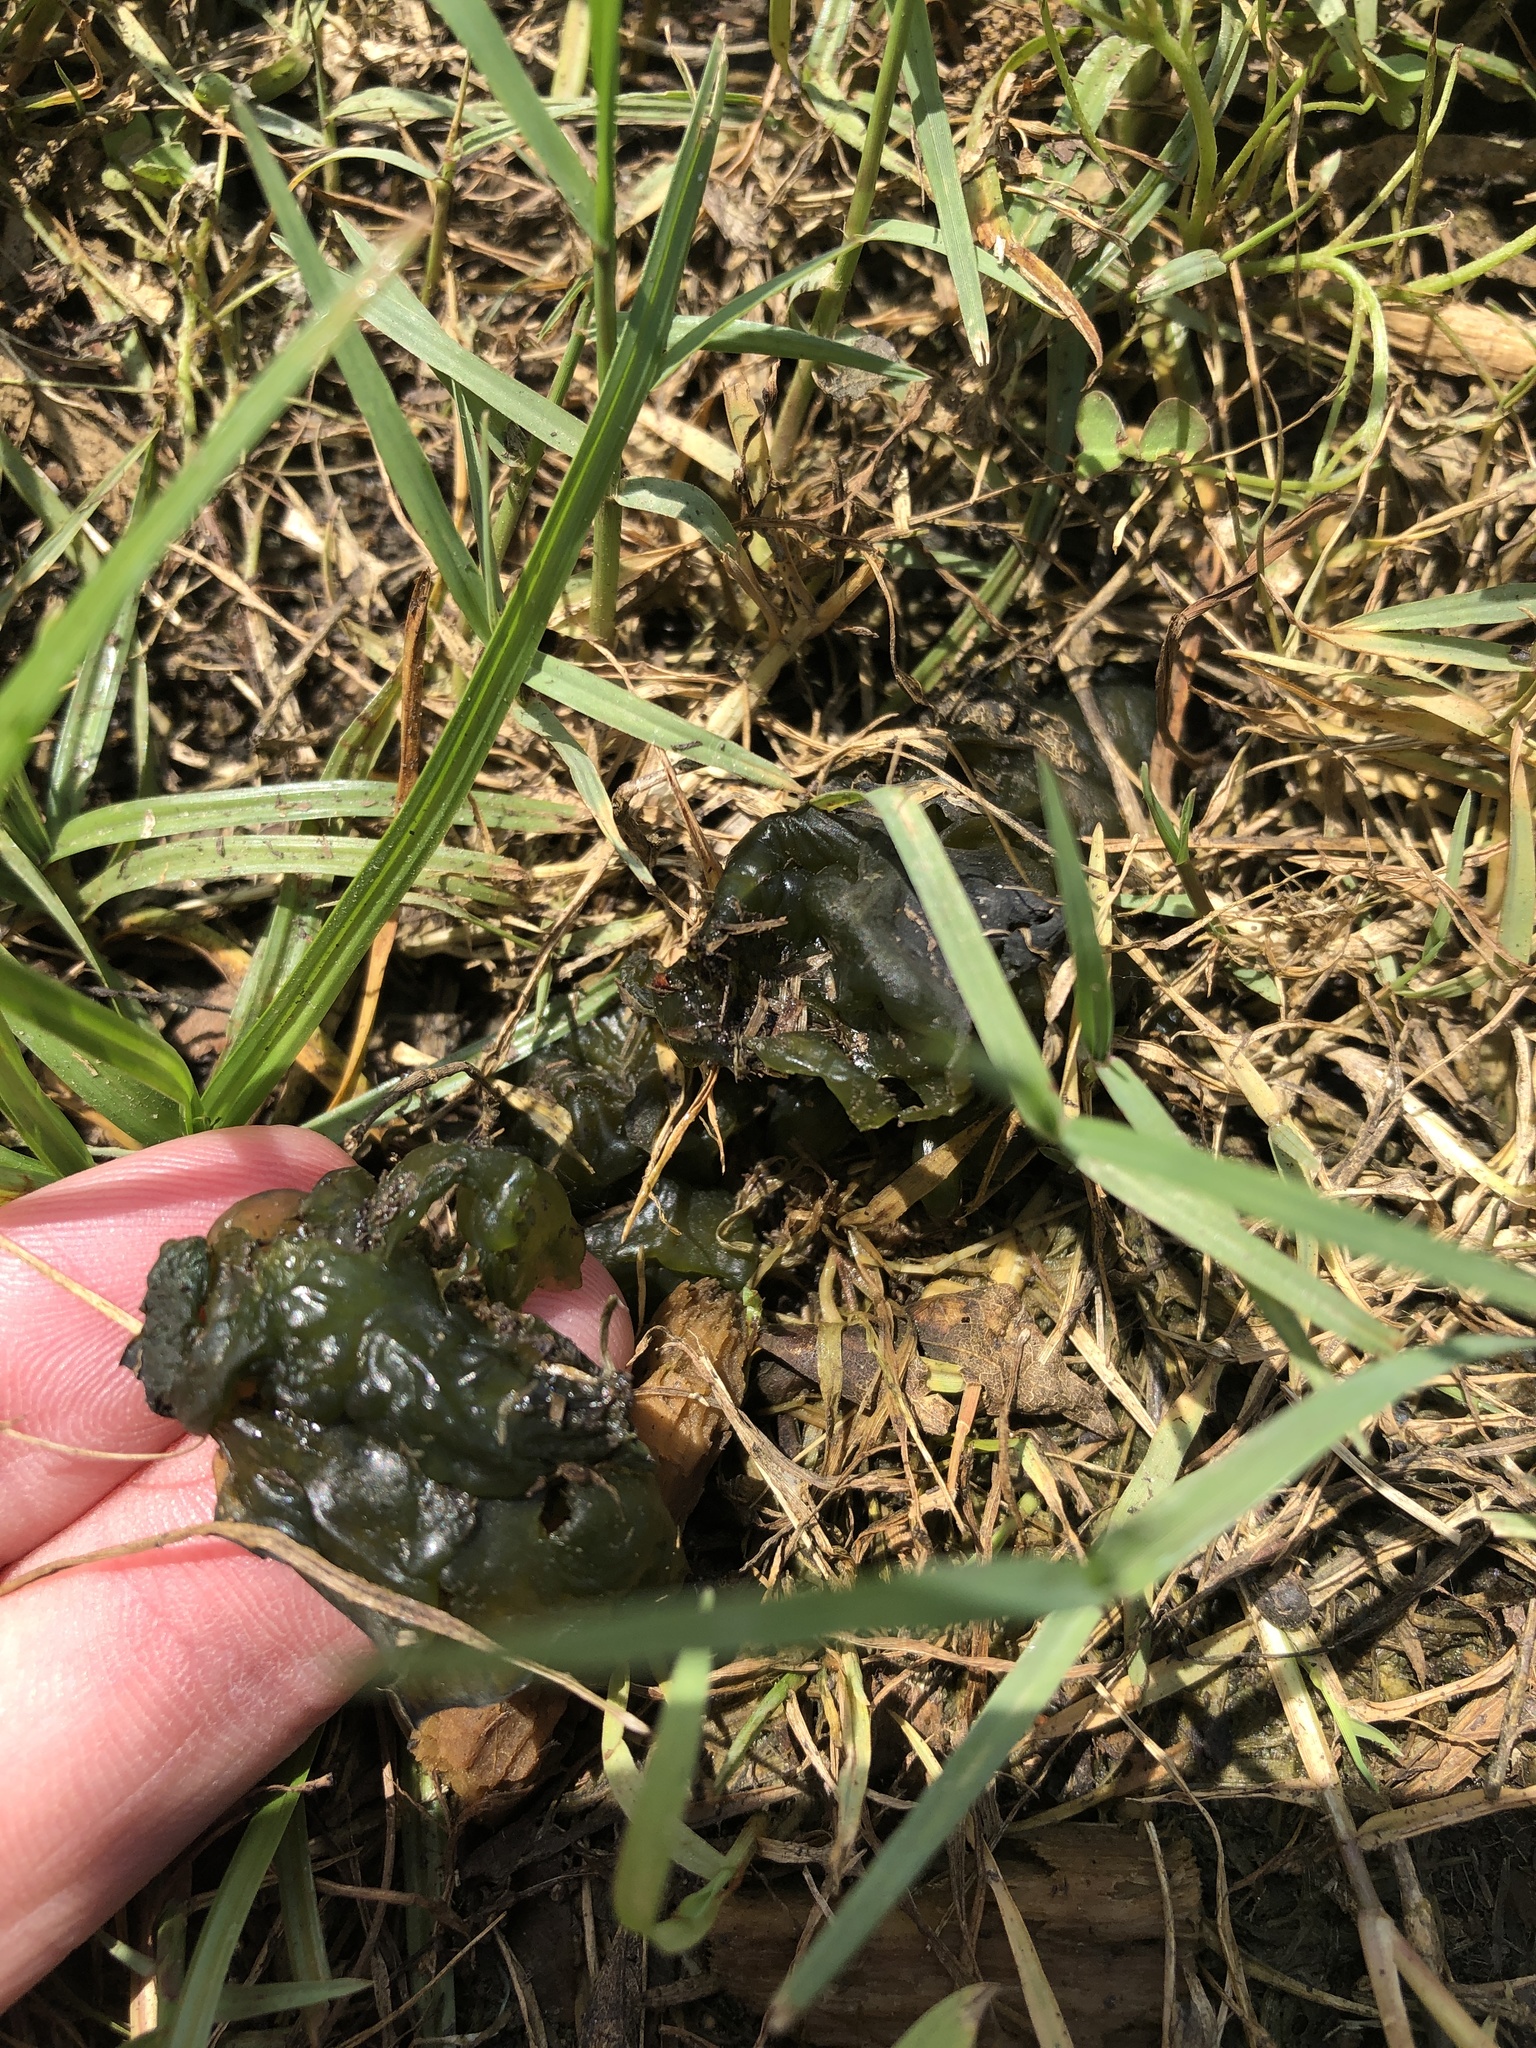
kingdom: Bacteria
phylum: Cyanobacteria
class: Cyanobacteriia
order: Cyanobacteriales
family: Nostocaceae
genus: Nostoc
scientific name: Nostoc commune
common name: Star jelly
